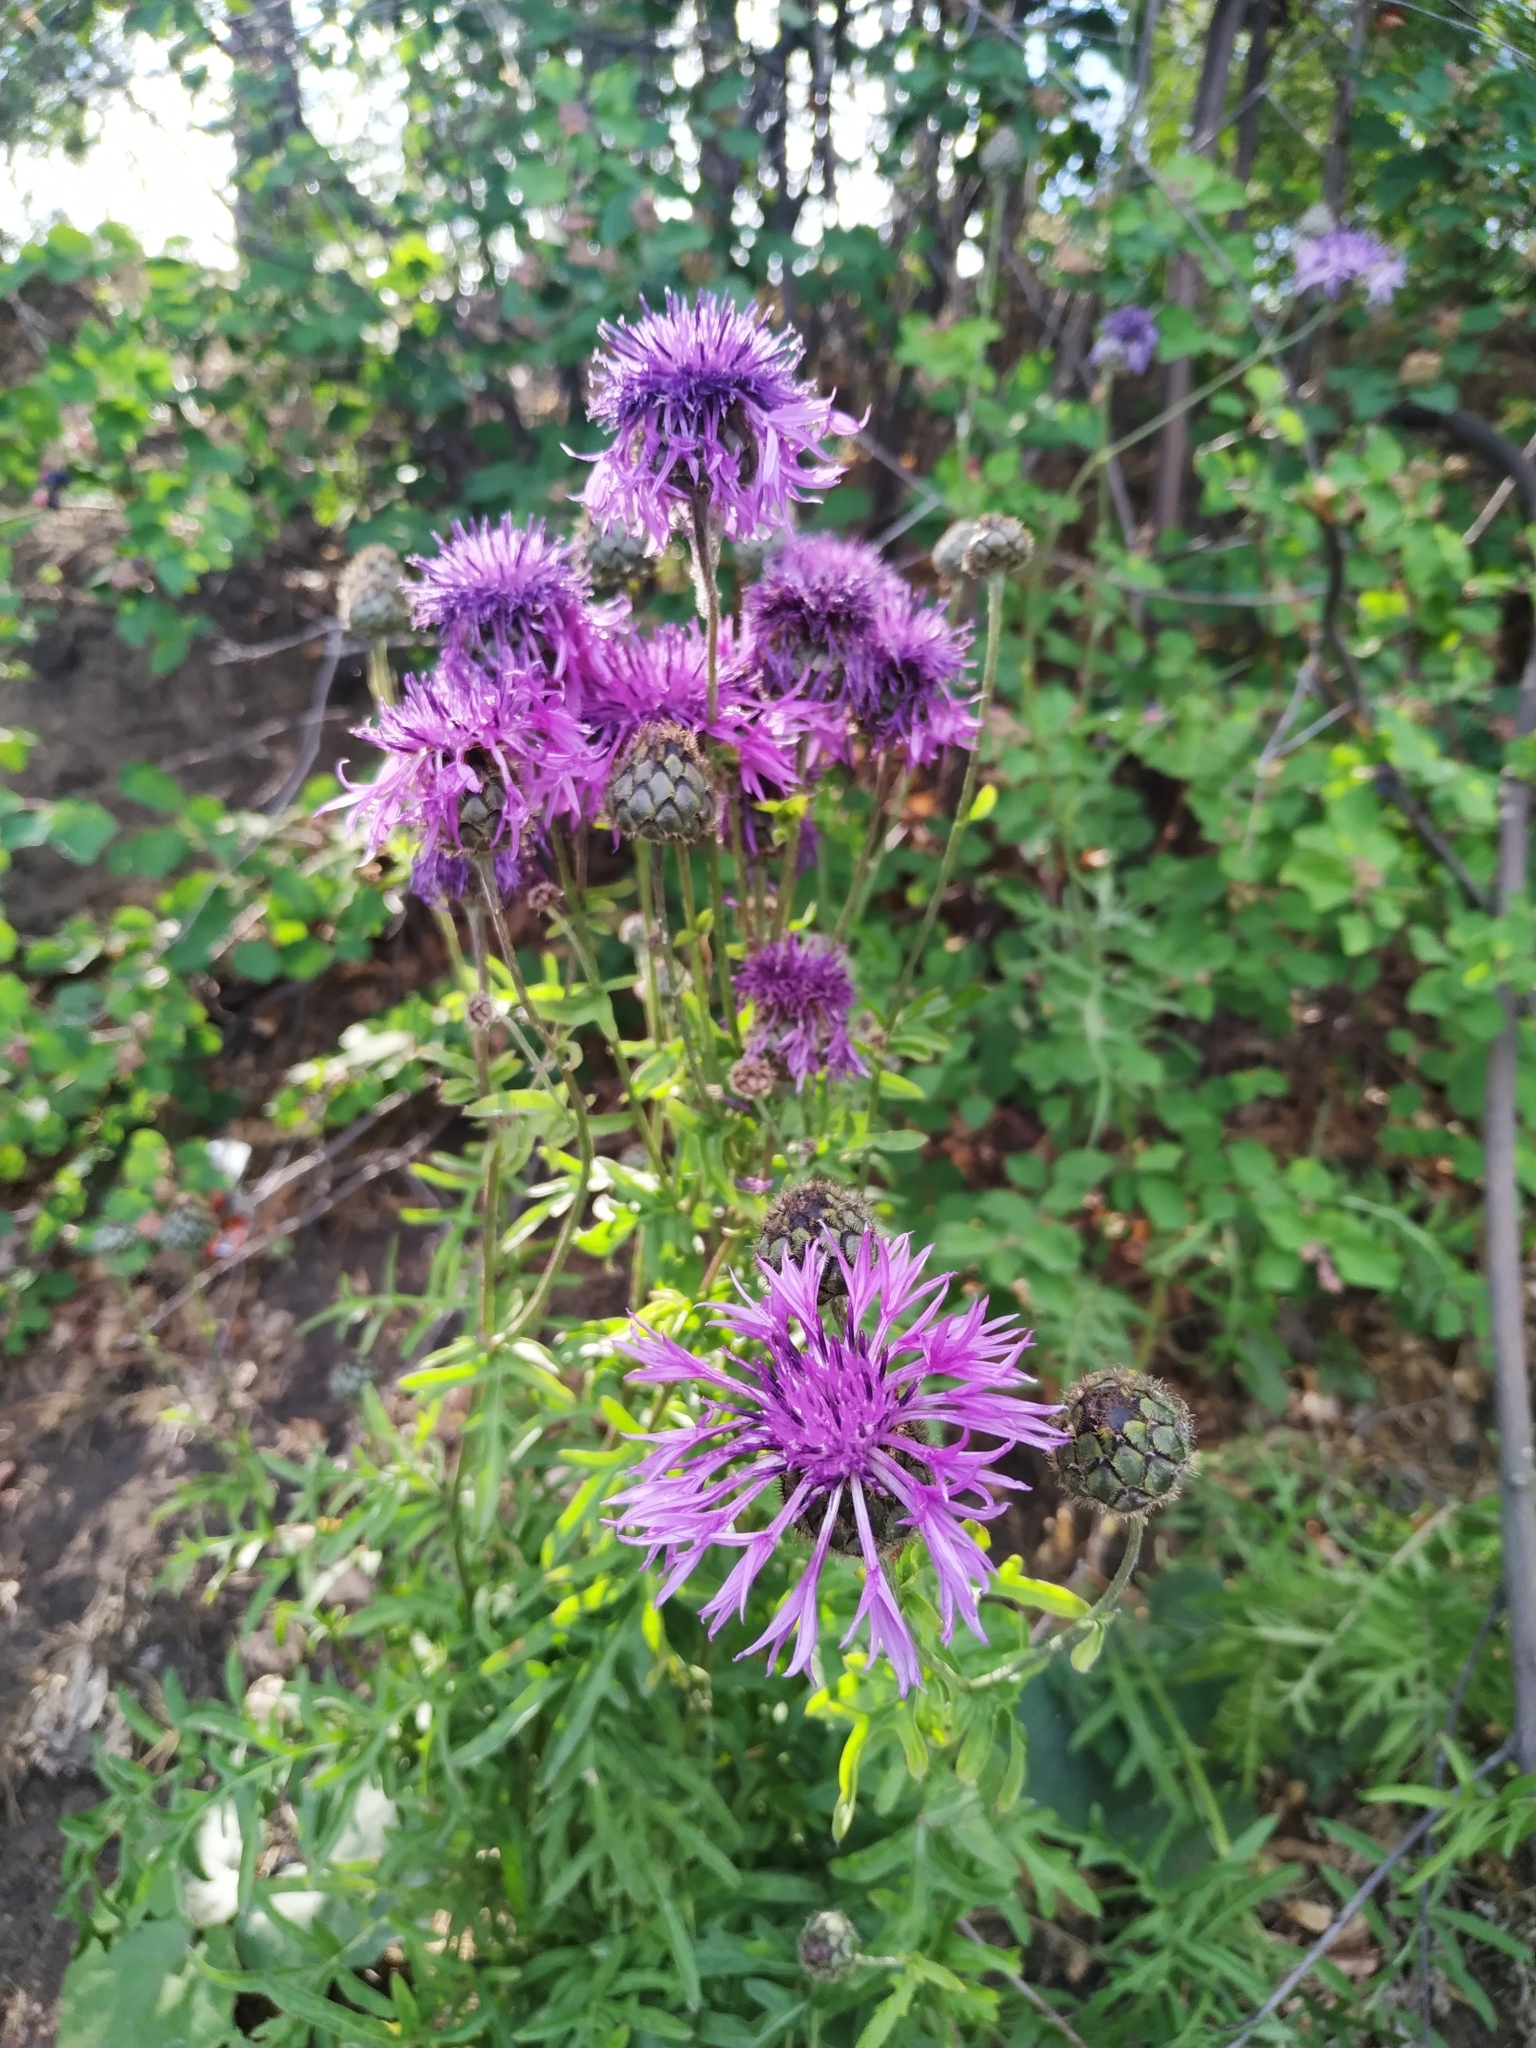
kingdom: Plantae
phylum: Tracheophyta
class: Magnoliopsida
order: Asterales
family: Asteraceae
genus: Centaurea
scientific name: Centaurea scabiosa
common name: Greater knapweed
